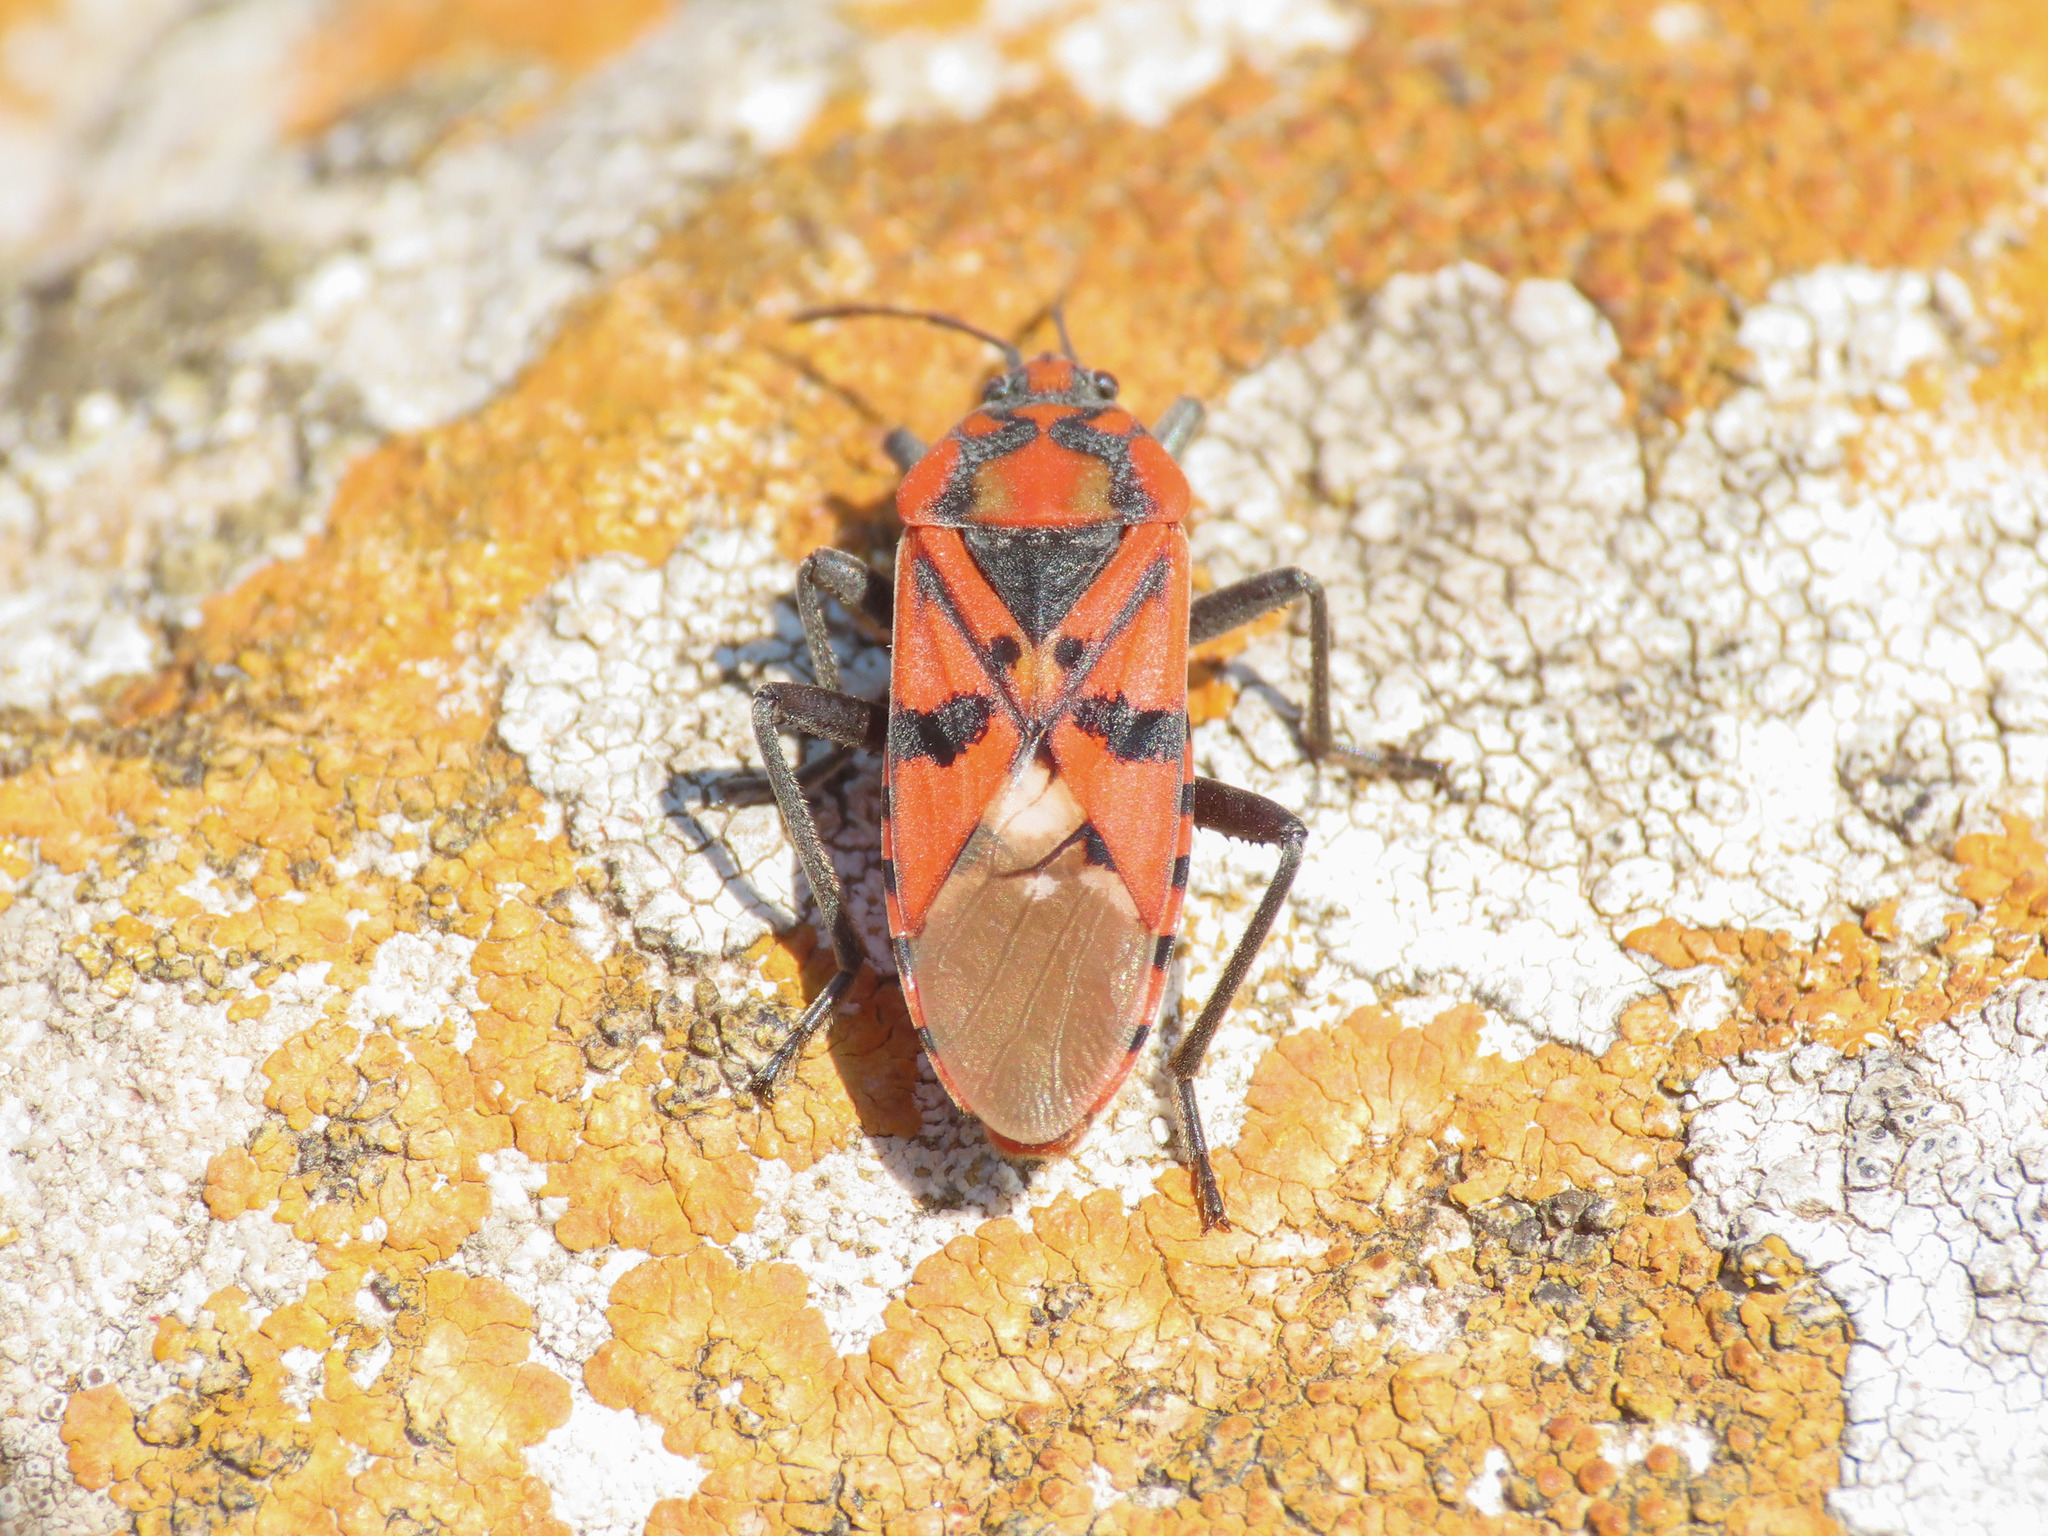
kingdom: Animalia
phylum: Arthropoda
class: Insecta
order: Hemiptera
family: Lygaeidae
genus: Spilostethus
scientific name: Spilostethus pandurus
